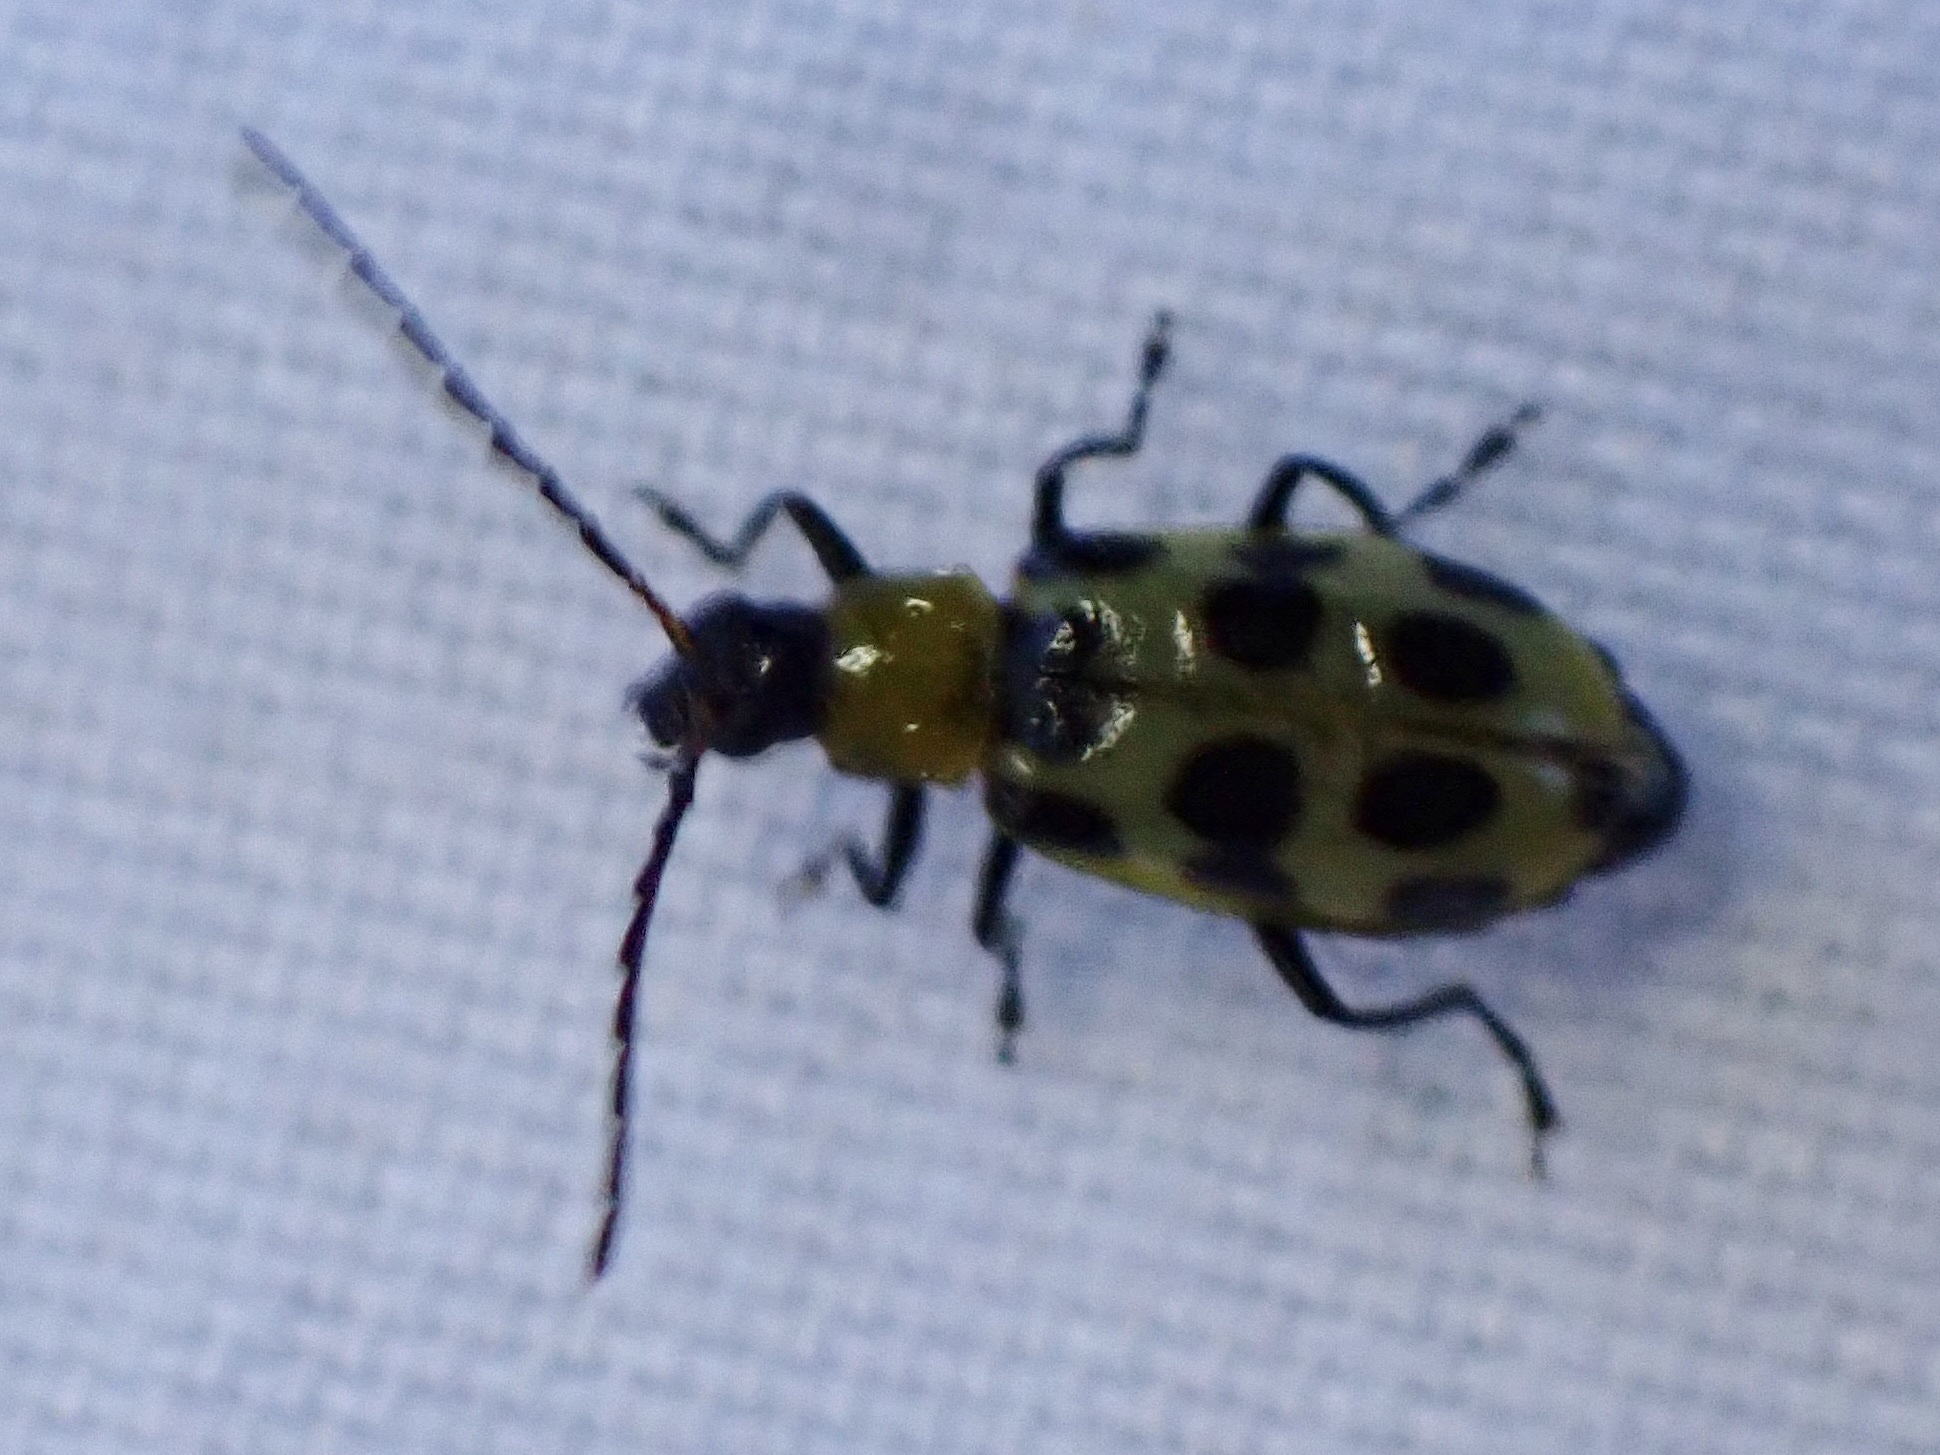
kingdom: Animalia
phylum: Arthropoda
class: Insecta
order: Coleoptera
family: Chrysomelidae
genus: Diabrotica
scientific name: Diabrotica undecimpunctata
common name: Spotted cucumber beetle
